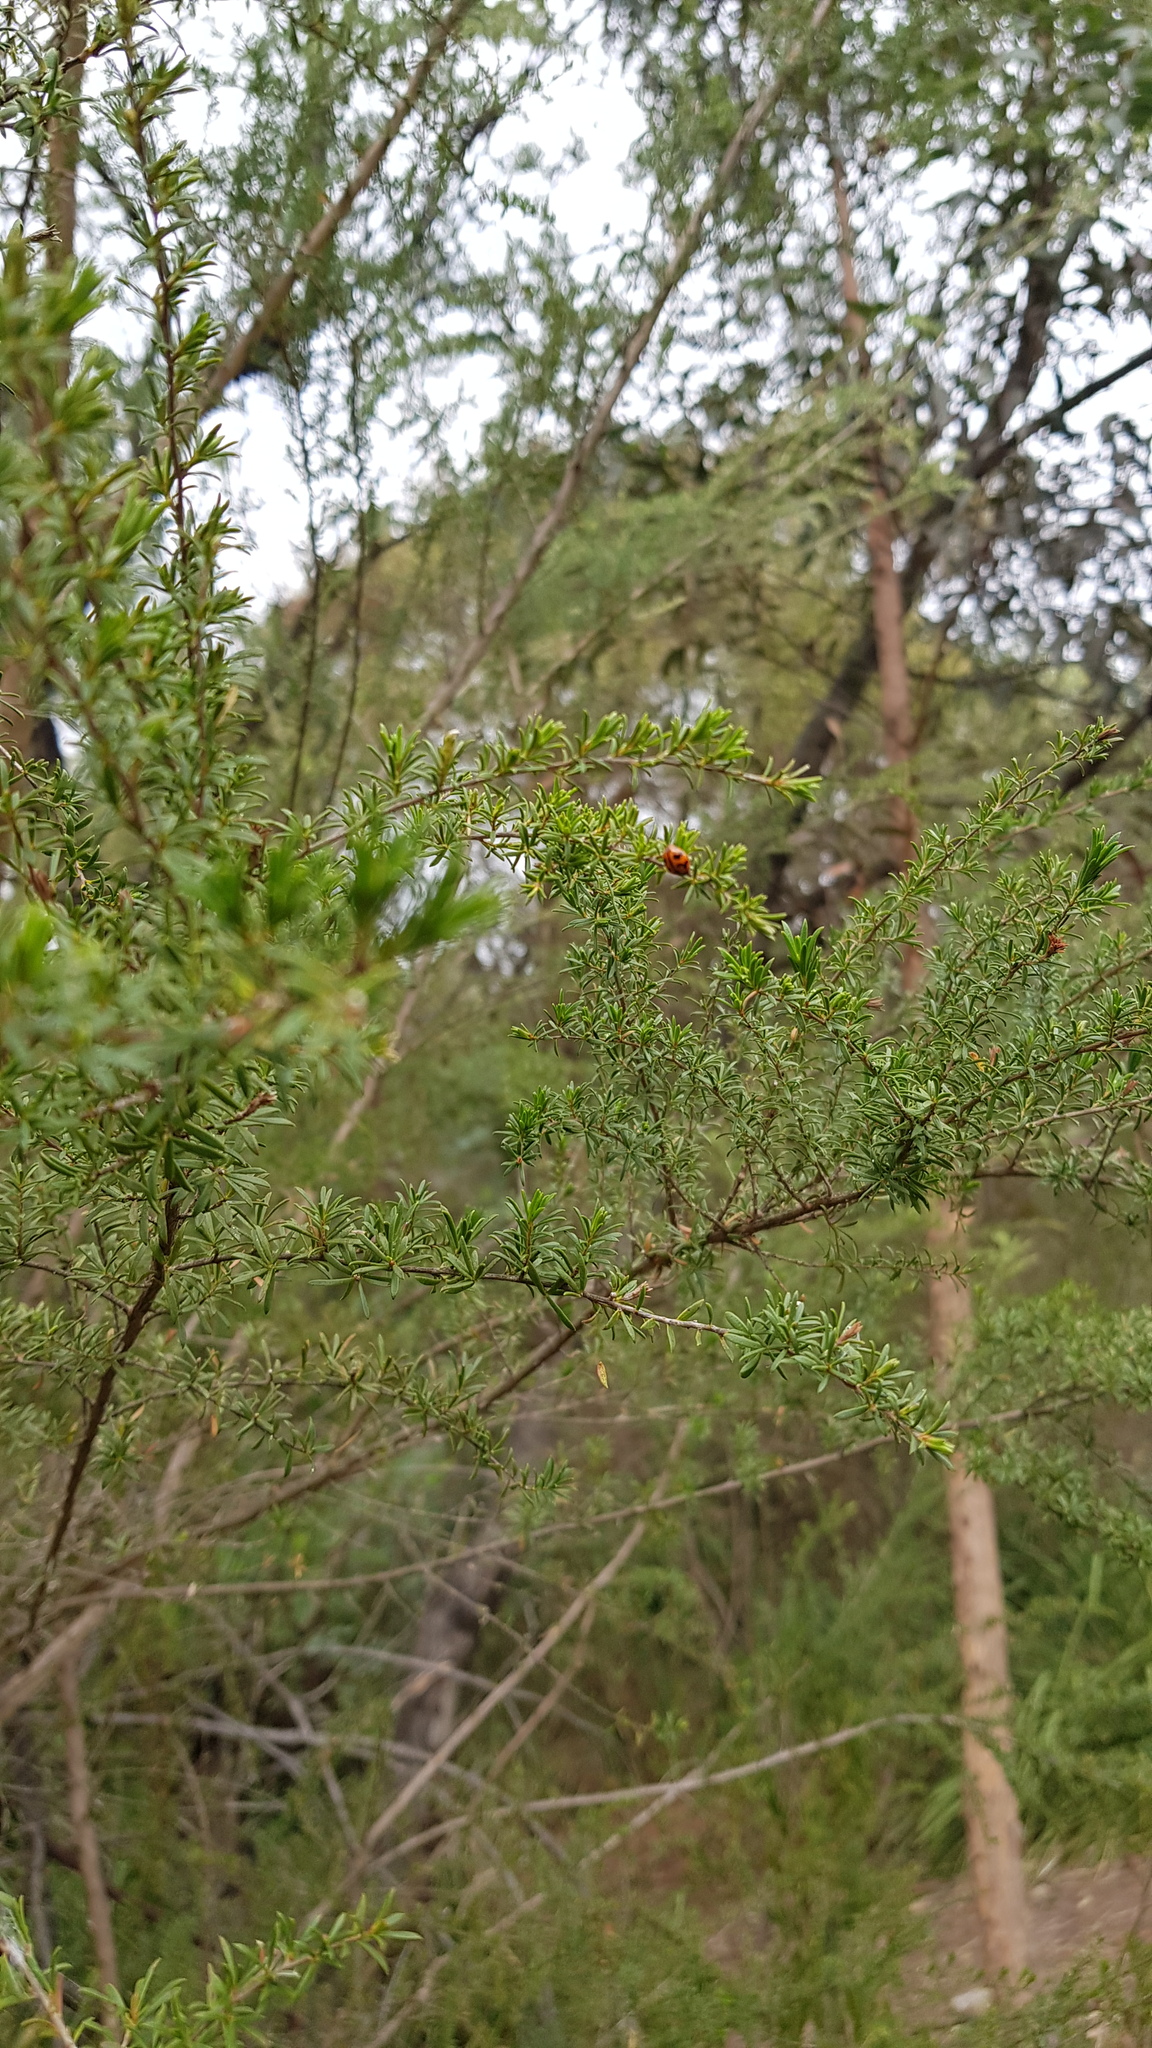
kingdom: Animalia
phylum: Arthropoda
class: Insecta
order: Coleoptera
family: Coccinellidae
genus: Coccinella
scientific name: Coccinella transversalis
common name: Transverse lady beetle
